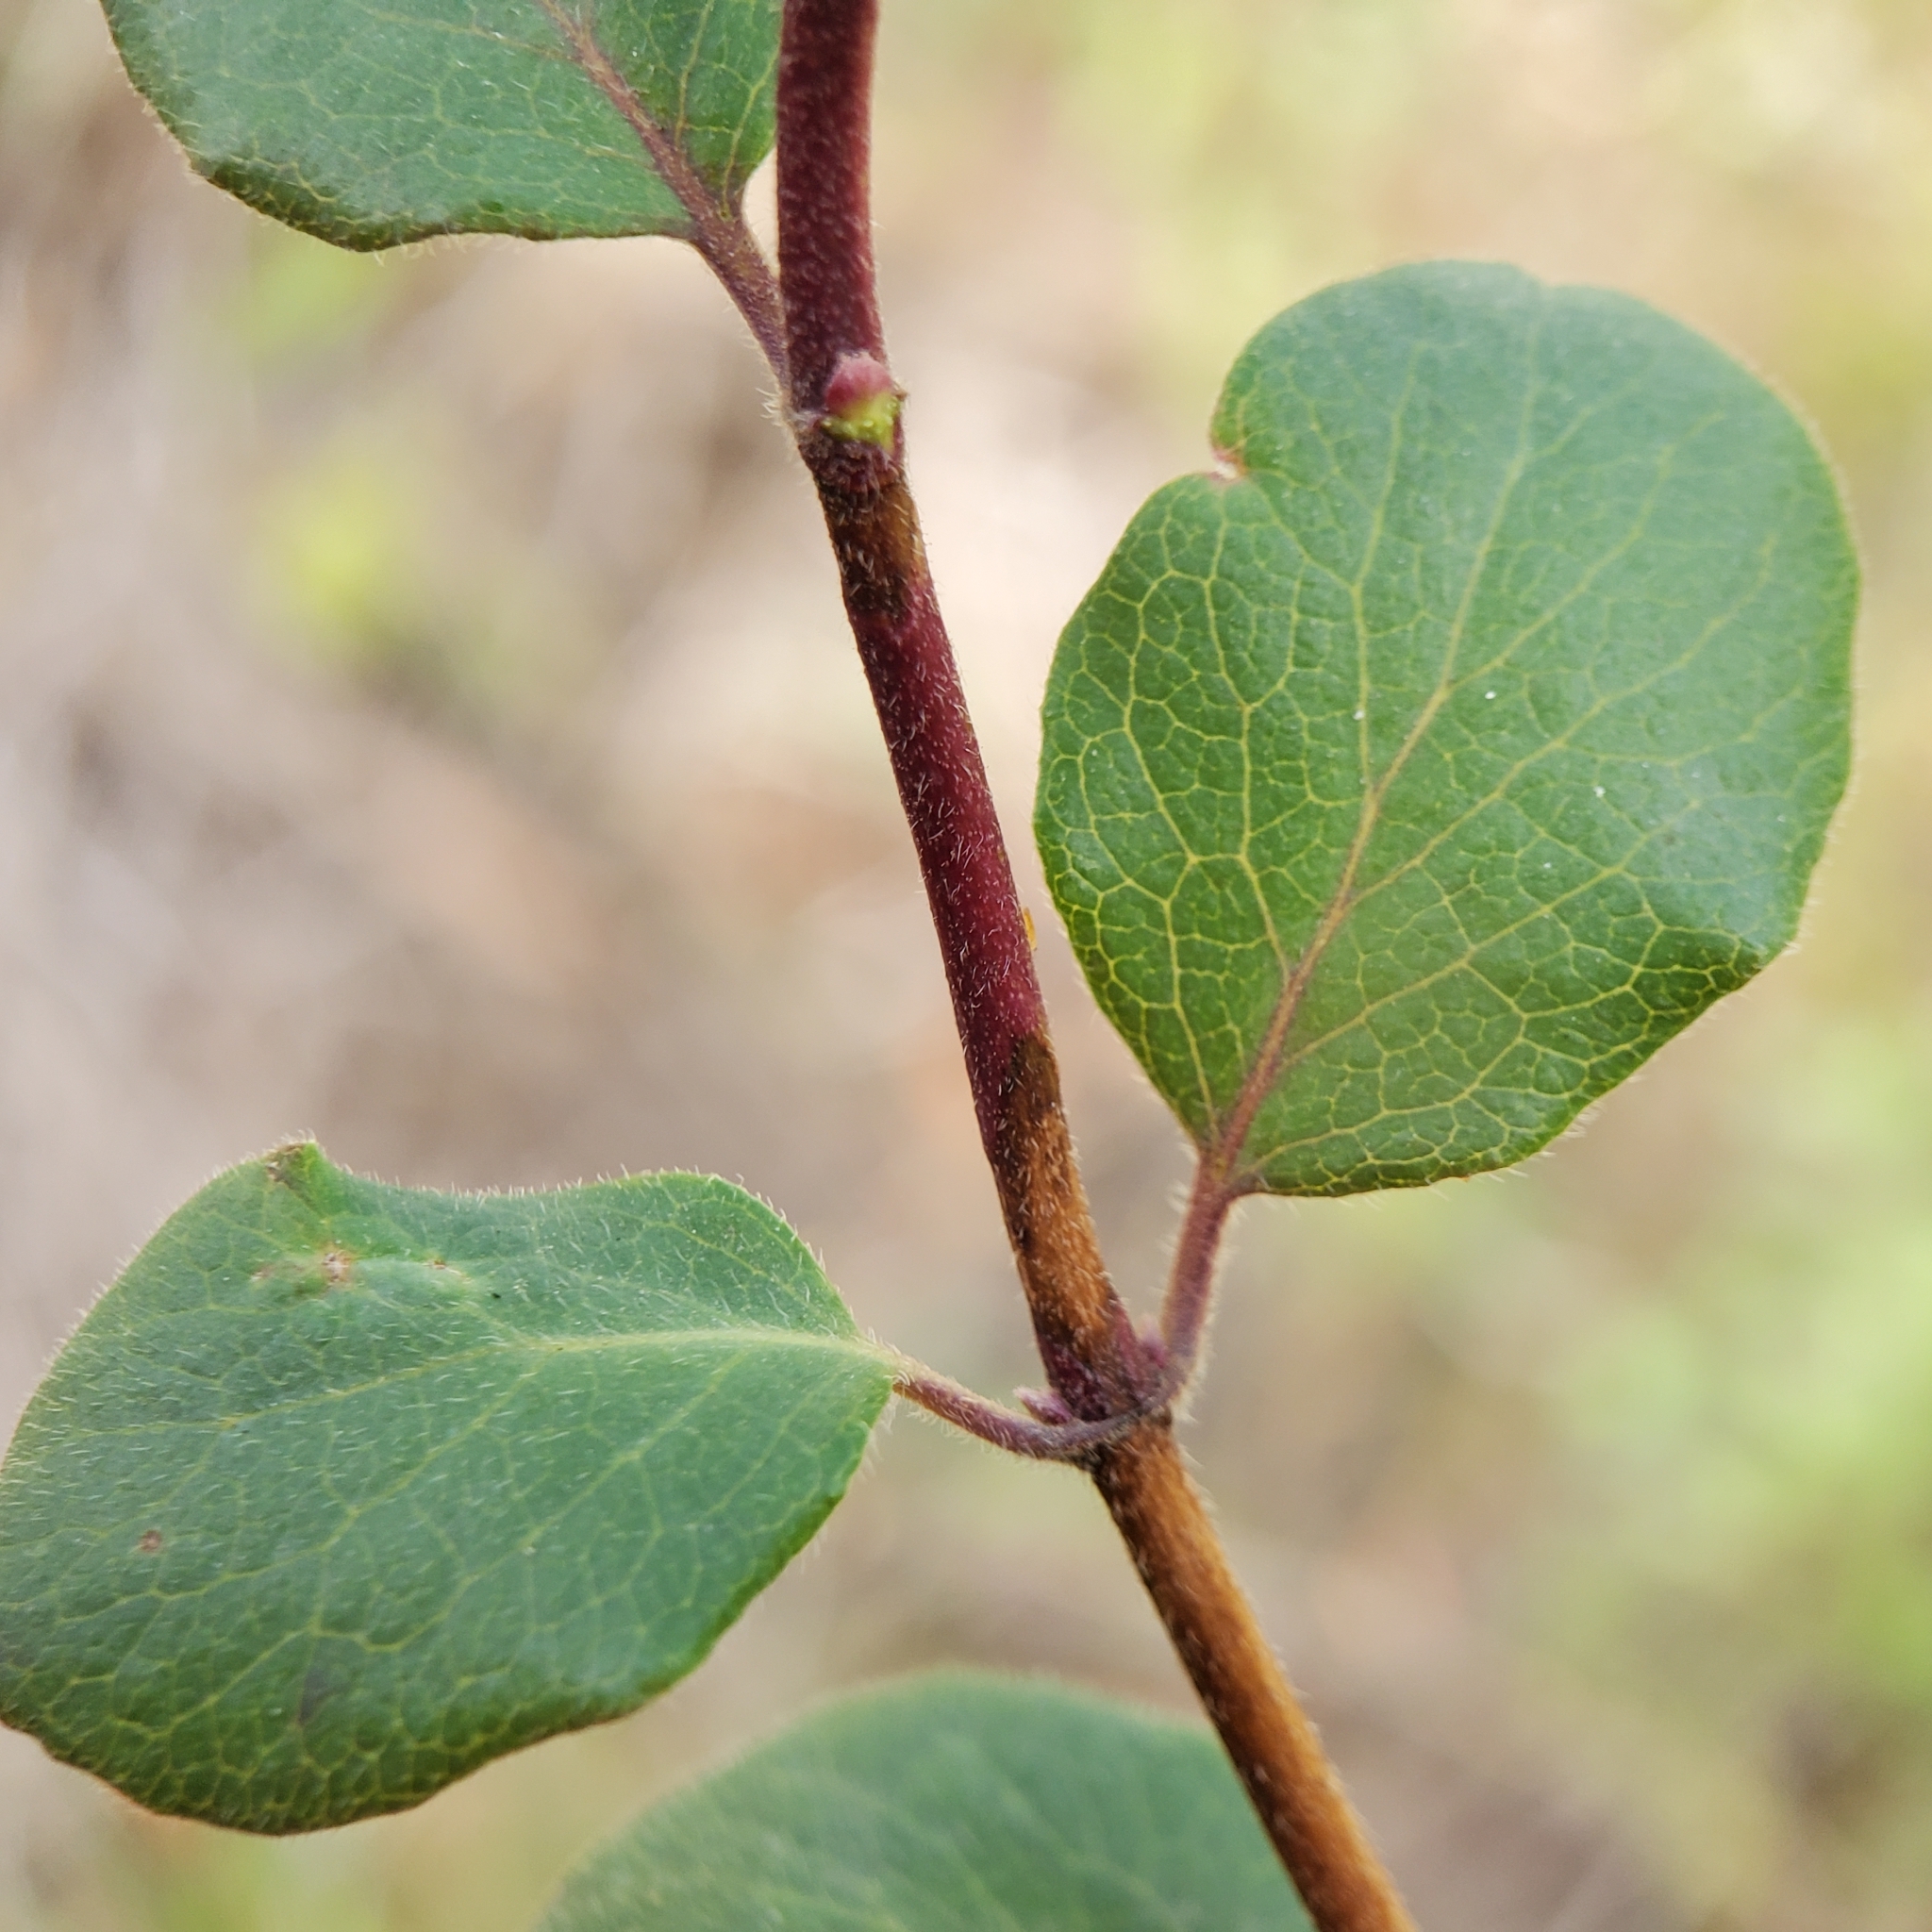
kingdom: Plantae
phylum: Tracheophyta
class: Magnoliopsida
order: Dipsacales
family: Caprifoliaceae
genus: Lonicera
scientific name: Lonicera subspicata
